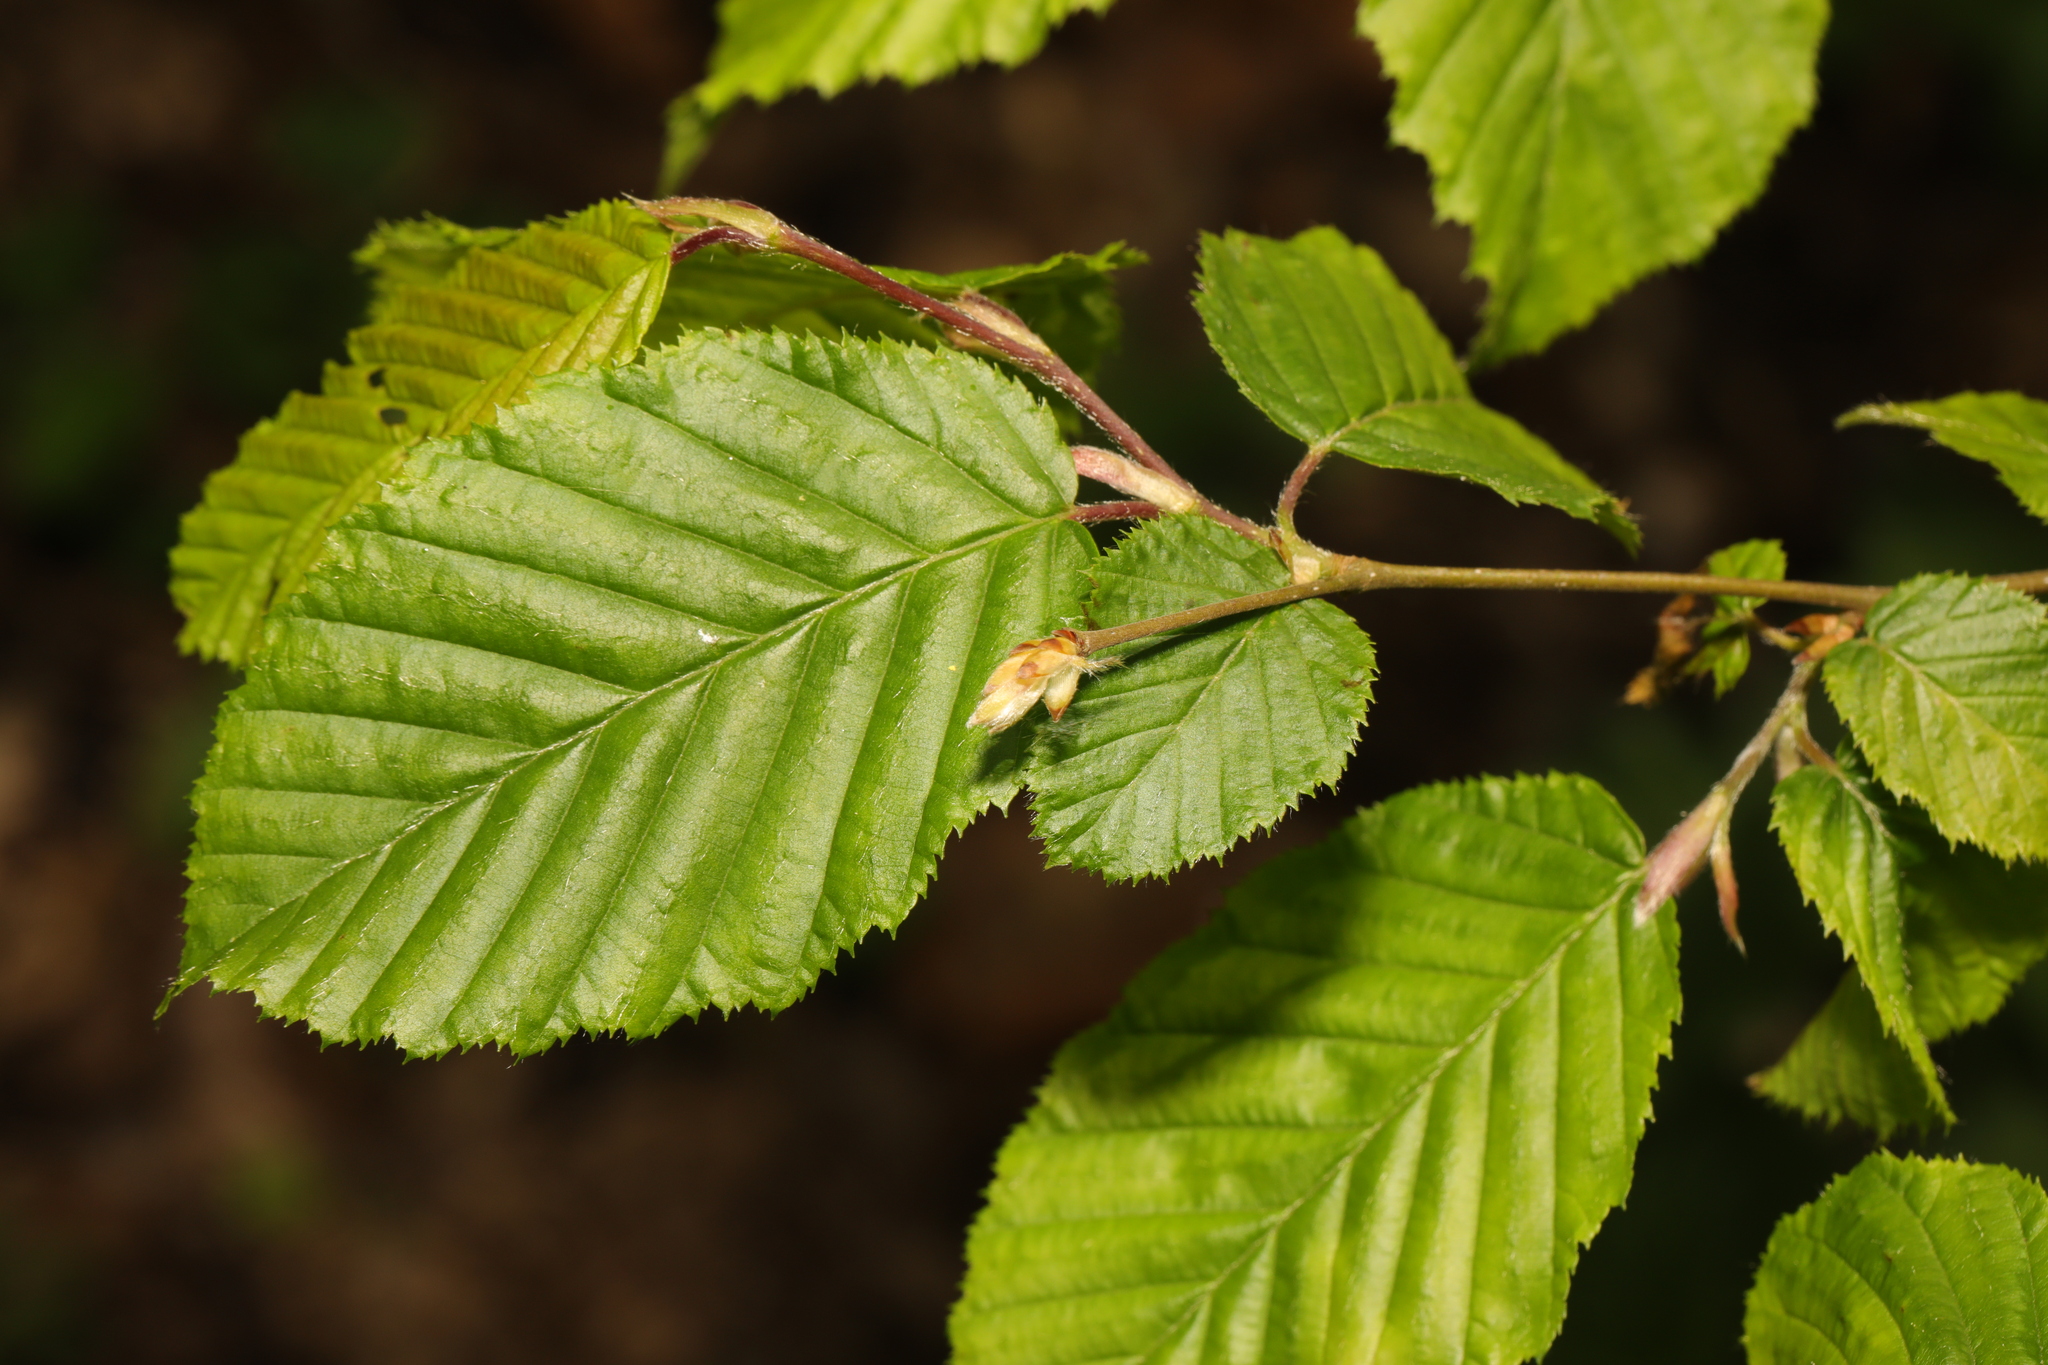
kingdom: Plantae
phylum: Tracheophyta
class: Magnoliopsida
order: Fagales
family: Betulaceae
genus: Carpinus
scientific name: Carpinus betulus
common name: Hornbeam
